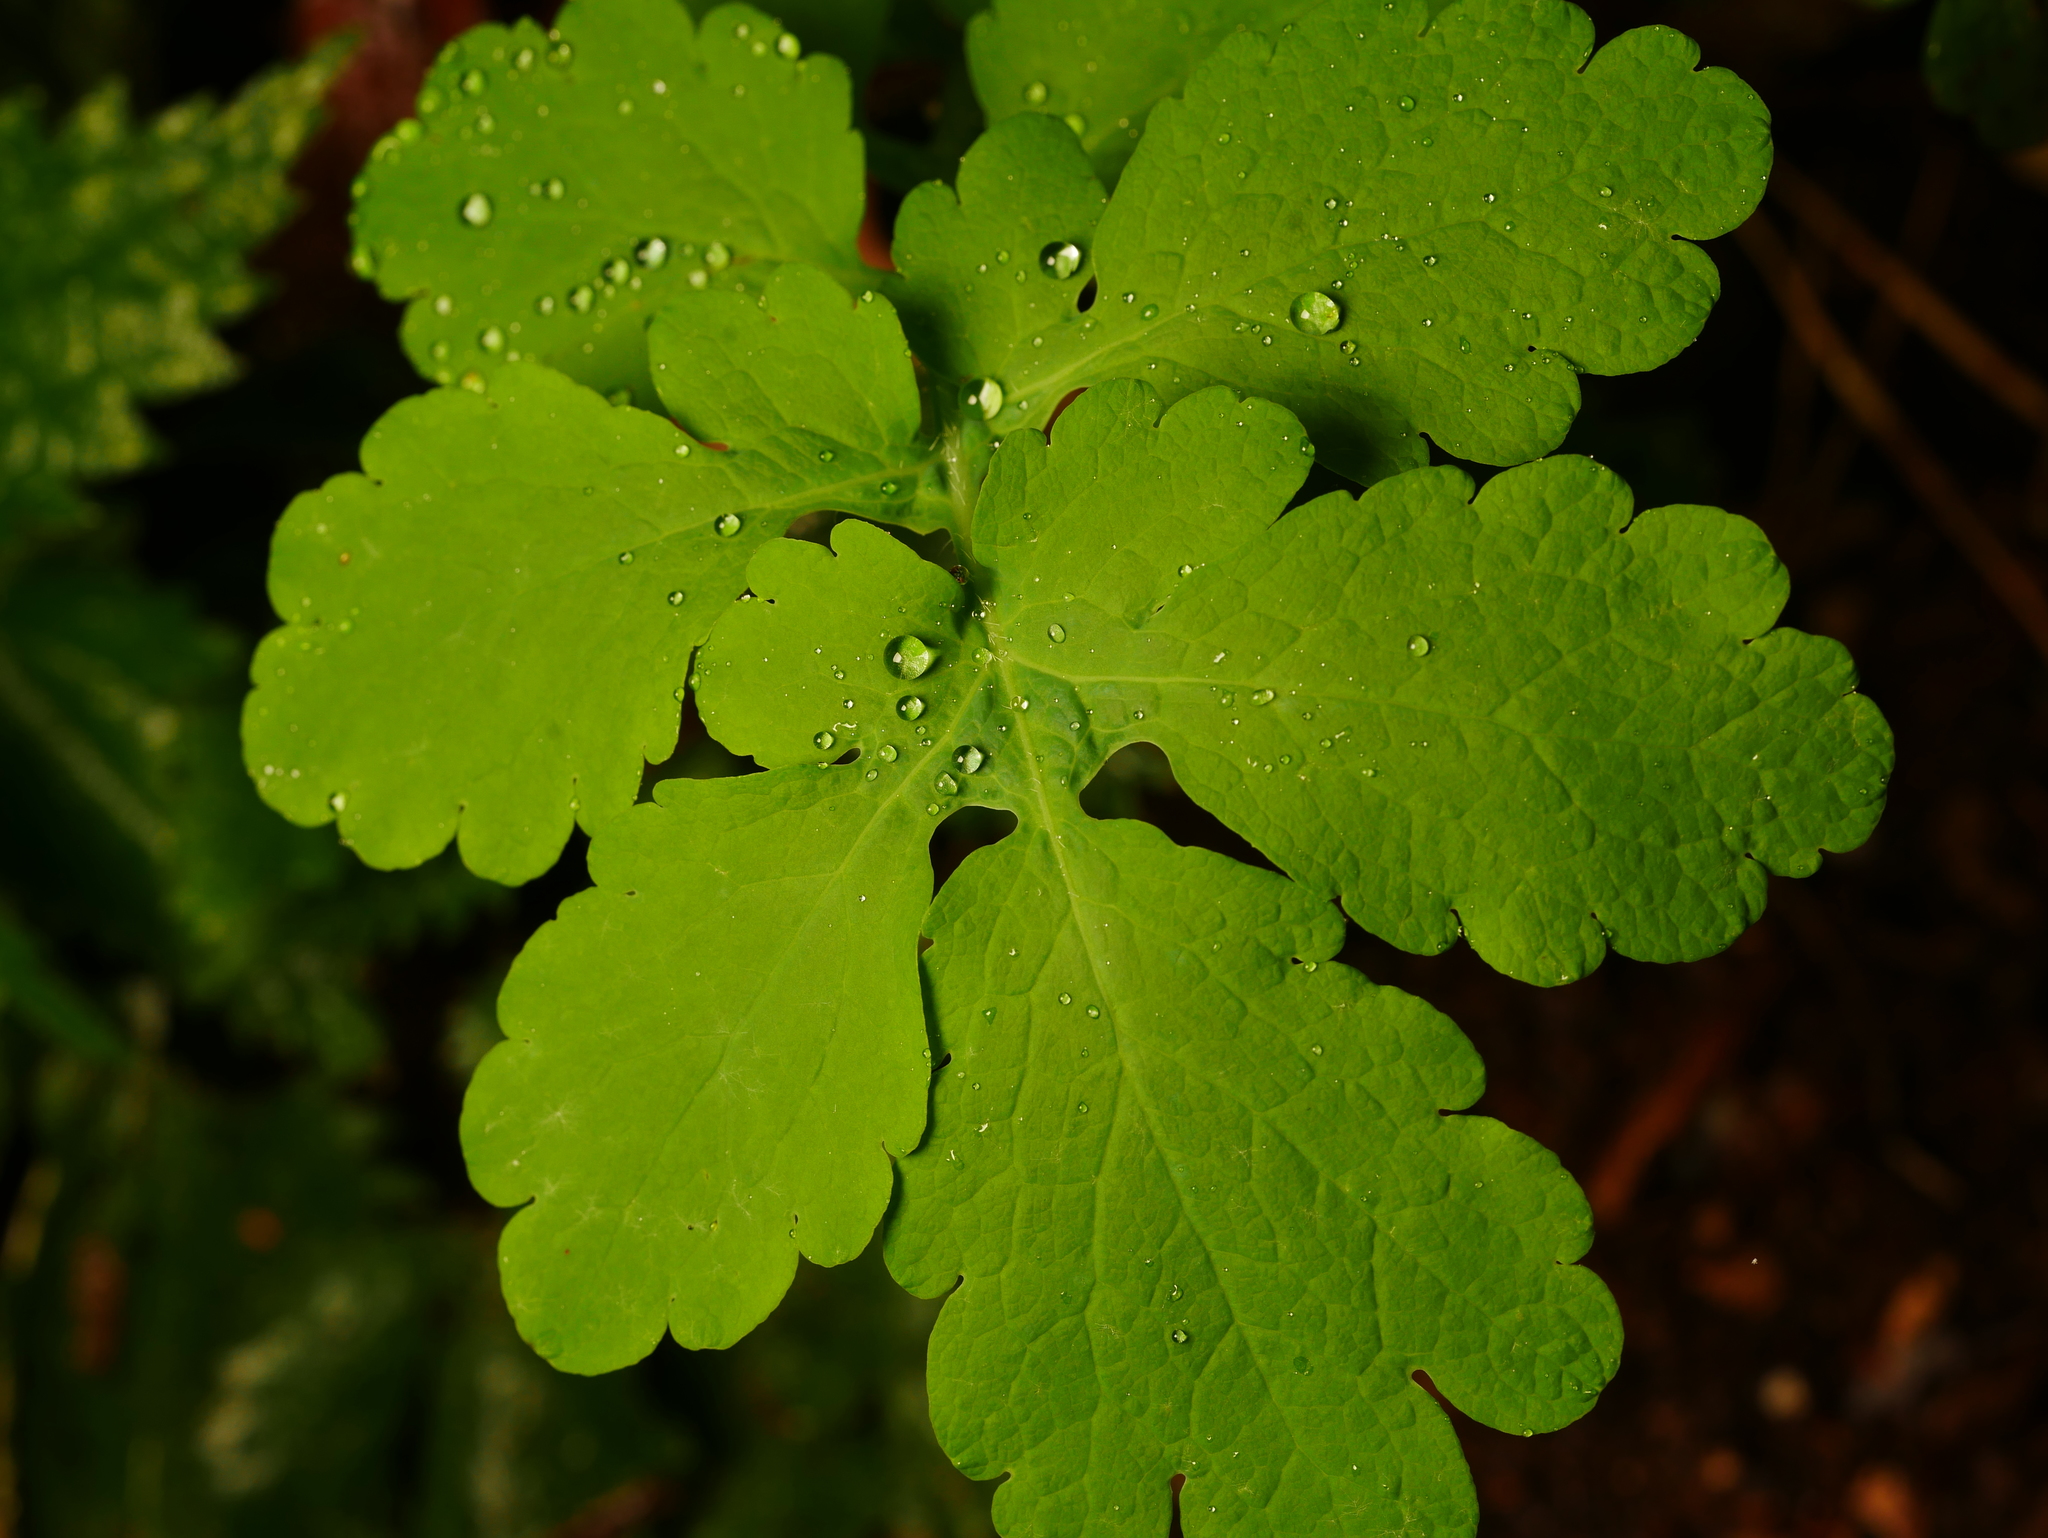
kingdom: Plantae
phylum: Tracheophyta
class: Magnoliopsida
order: Ranunculales
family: Papaveraceae
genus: Chelidonium
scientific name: Chelidonium majus
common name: Greater celandine
